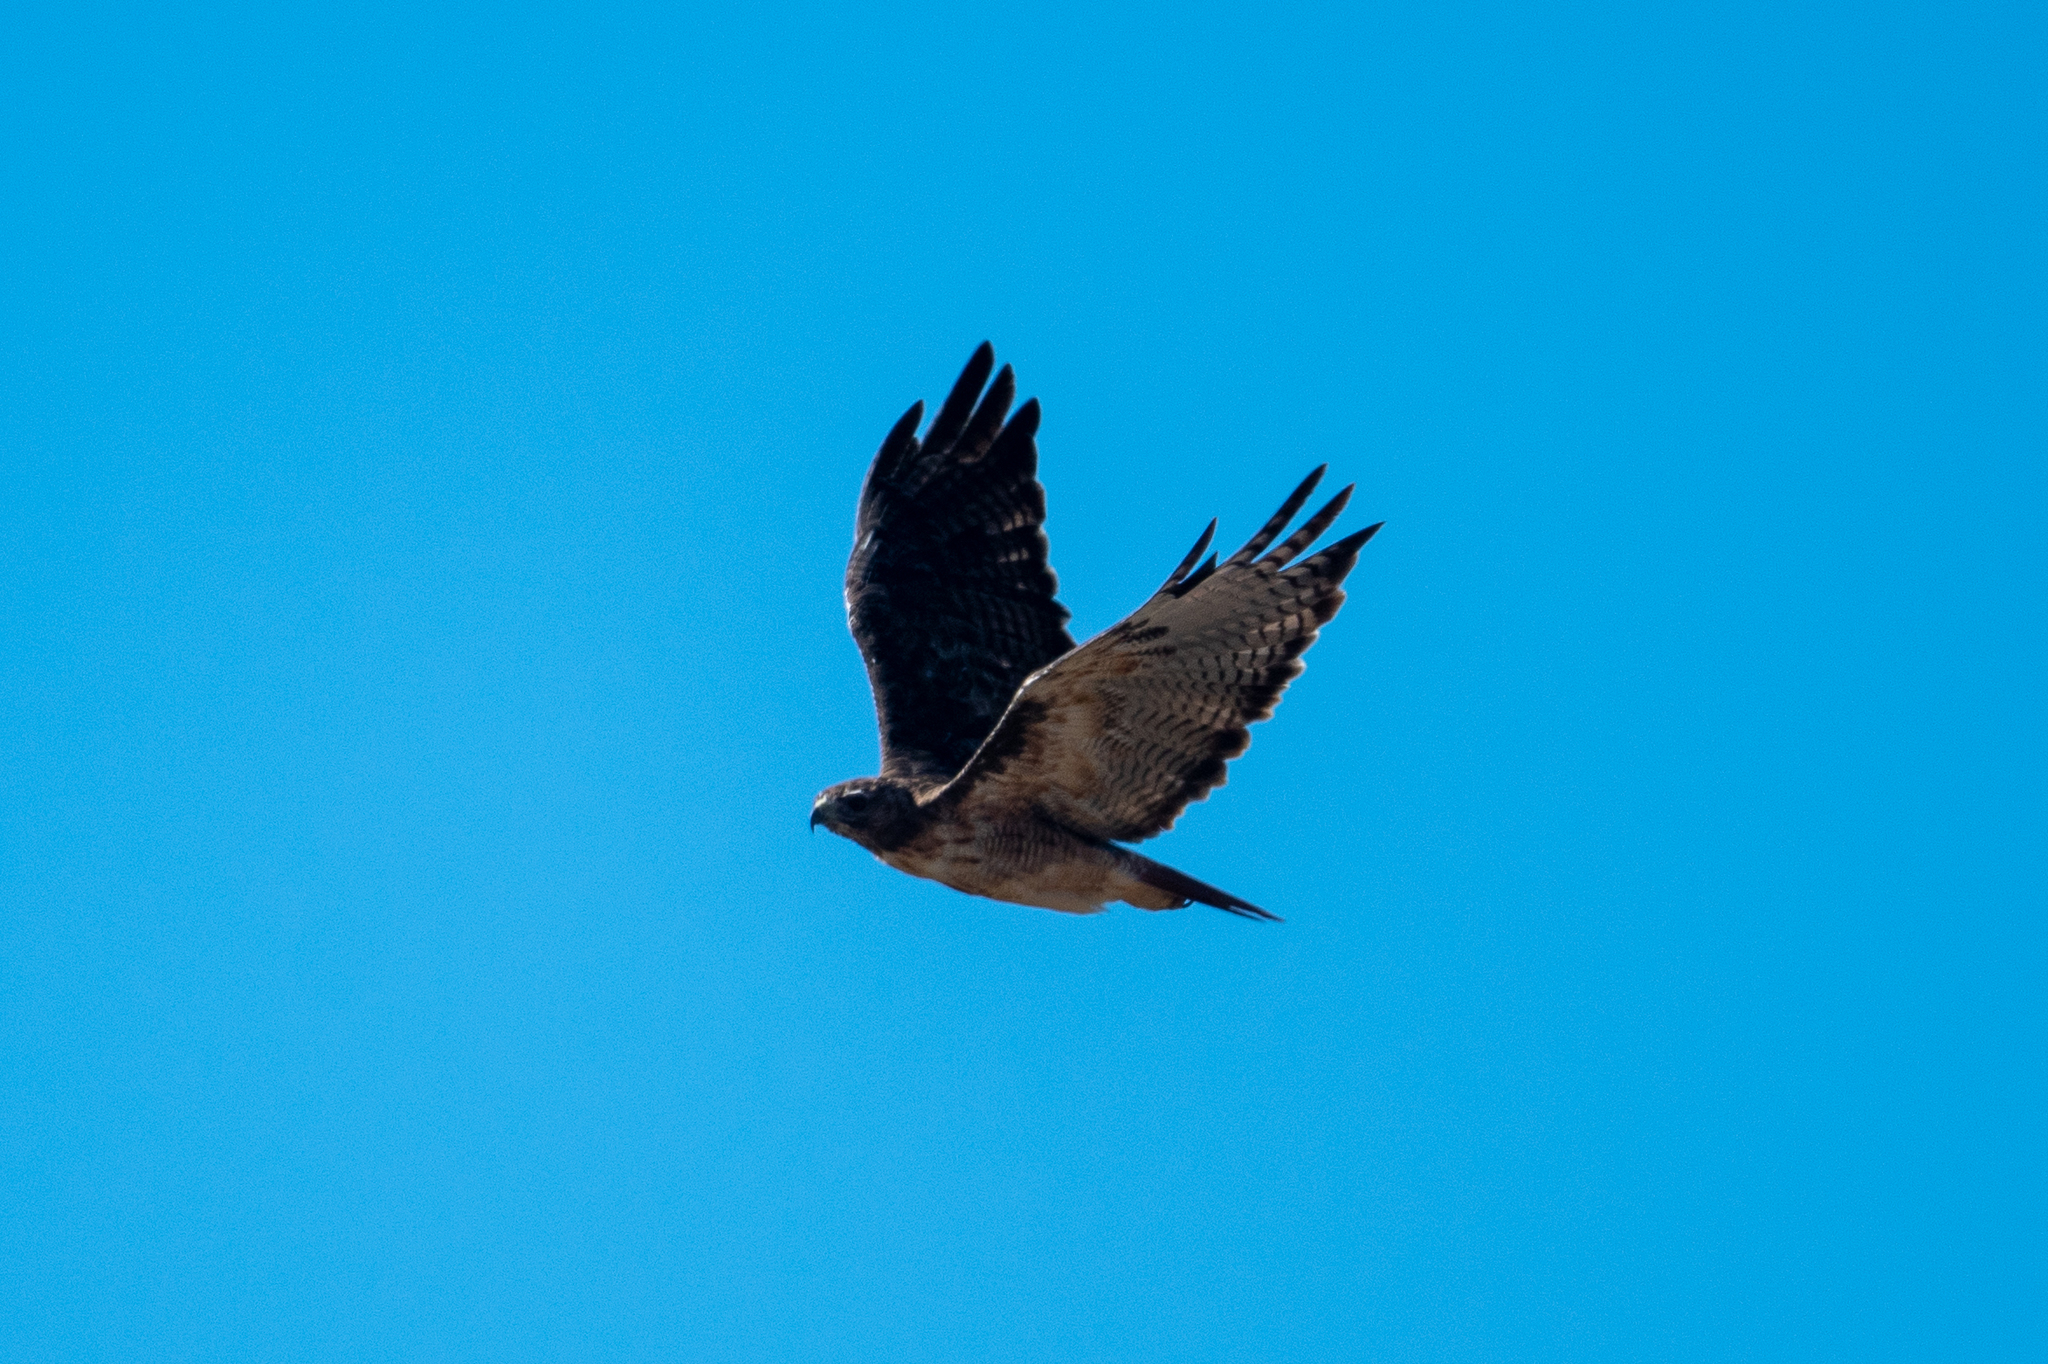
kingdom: Animalia
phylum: Chordata
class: Aves
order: Accipitriformes
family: Accipitridae
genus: Buteo
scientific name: Buteo jamaicensis
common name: Red-tailed hawk
